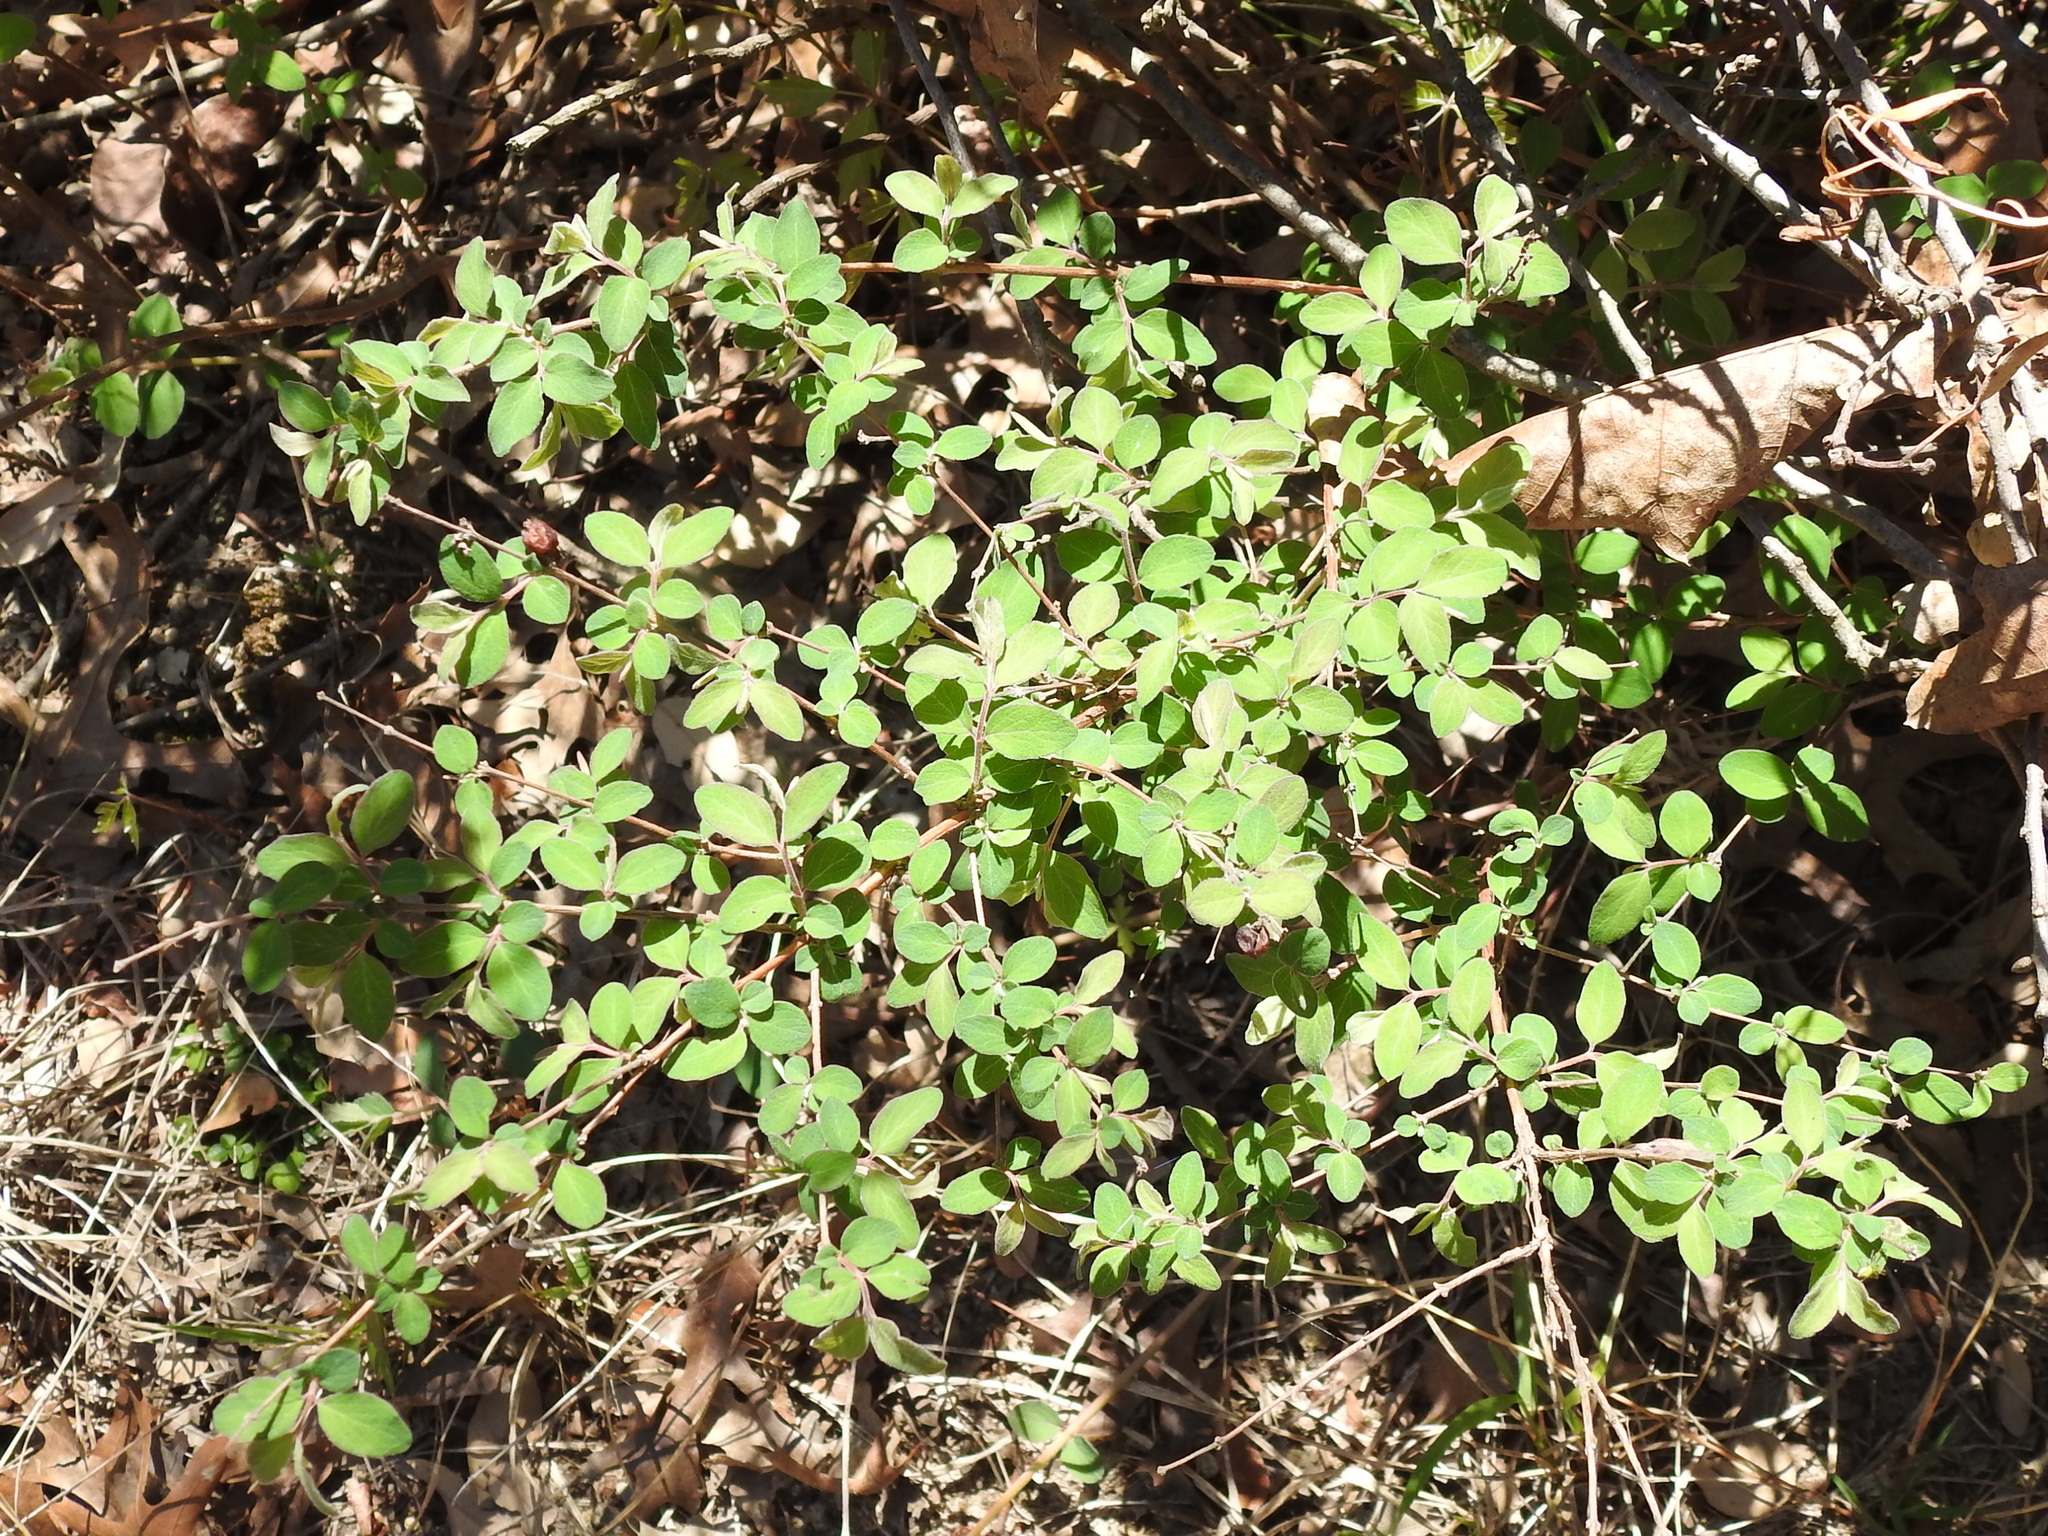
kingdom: Plantae
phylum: Tracheophyta
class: Magnoliopsida
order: Dipsacales
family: Caprifoliaceae
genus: Symphoricarpos
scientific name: Symphoricarpos orbiculatus
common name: Coralberry
